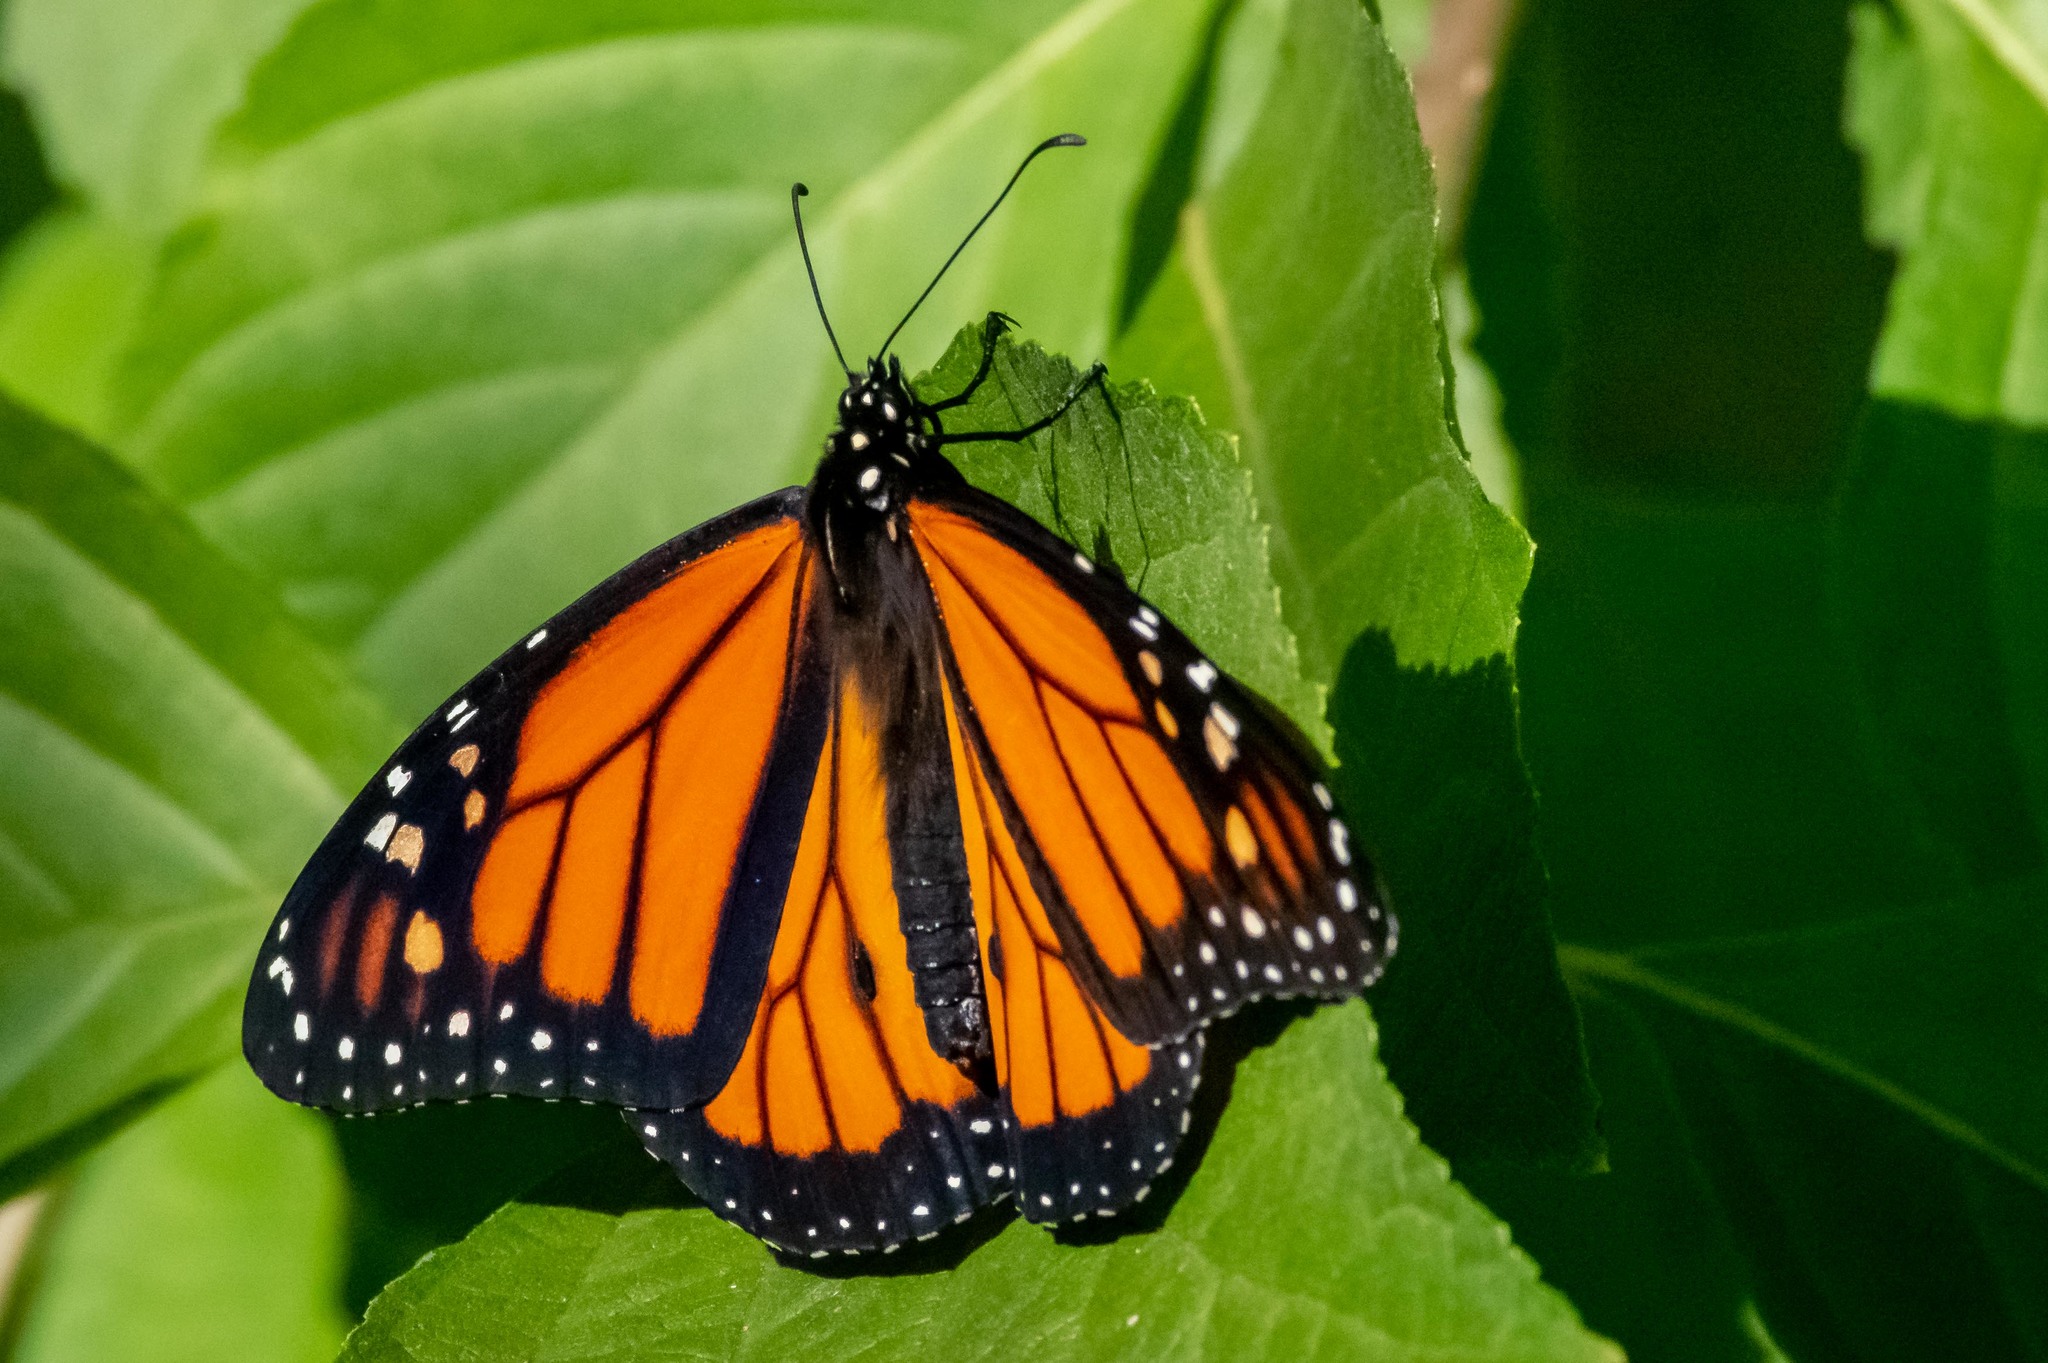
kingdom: Animalia
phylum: Arthropoda
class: Insecta
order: Lepidoptera
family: Nymphalidae
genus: Danaus
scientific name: Danaus plexippus
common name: Monarch
